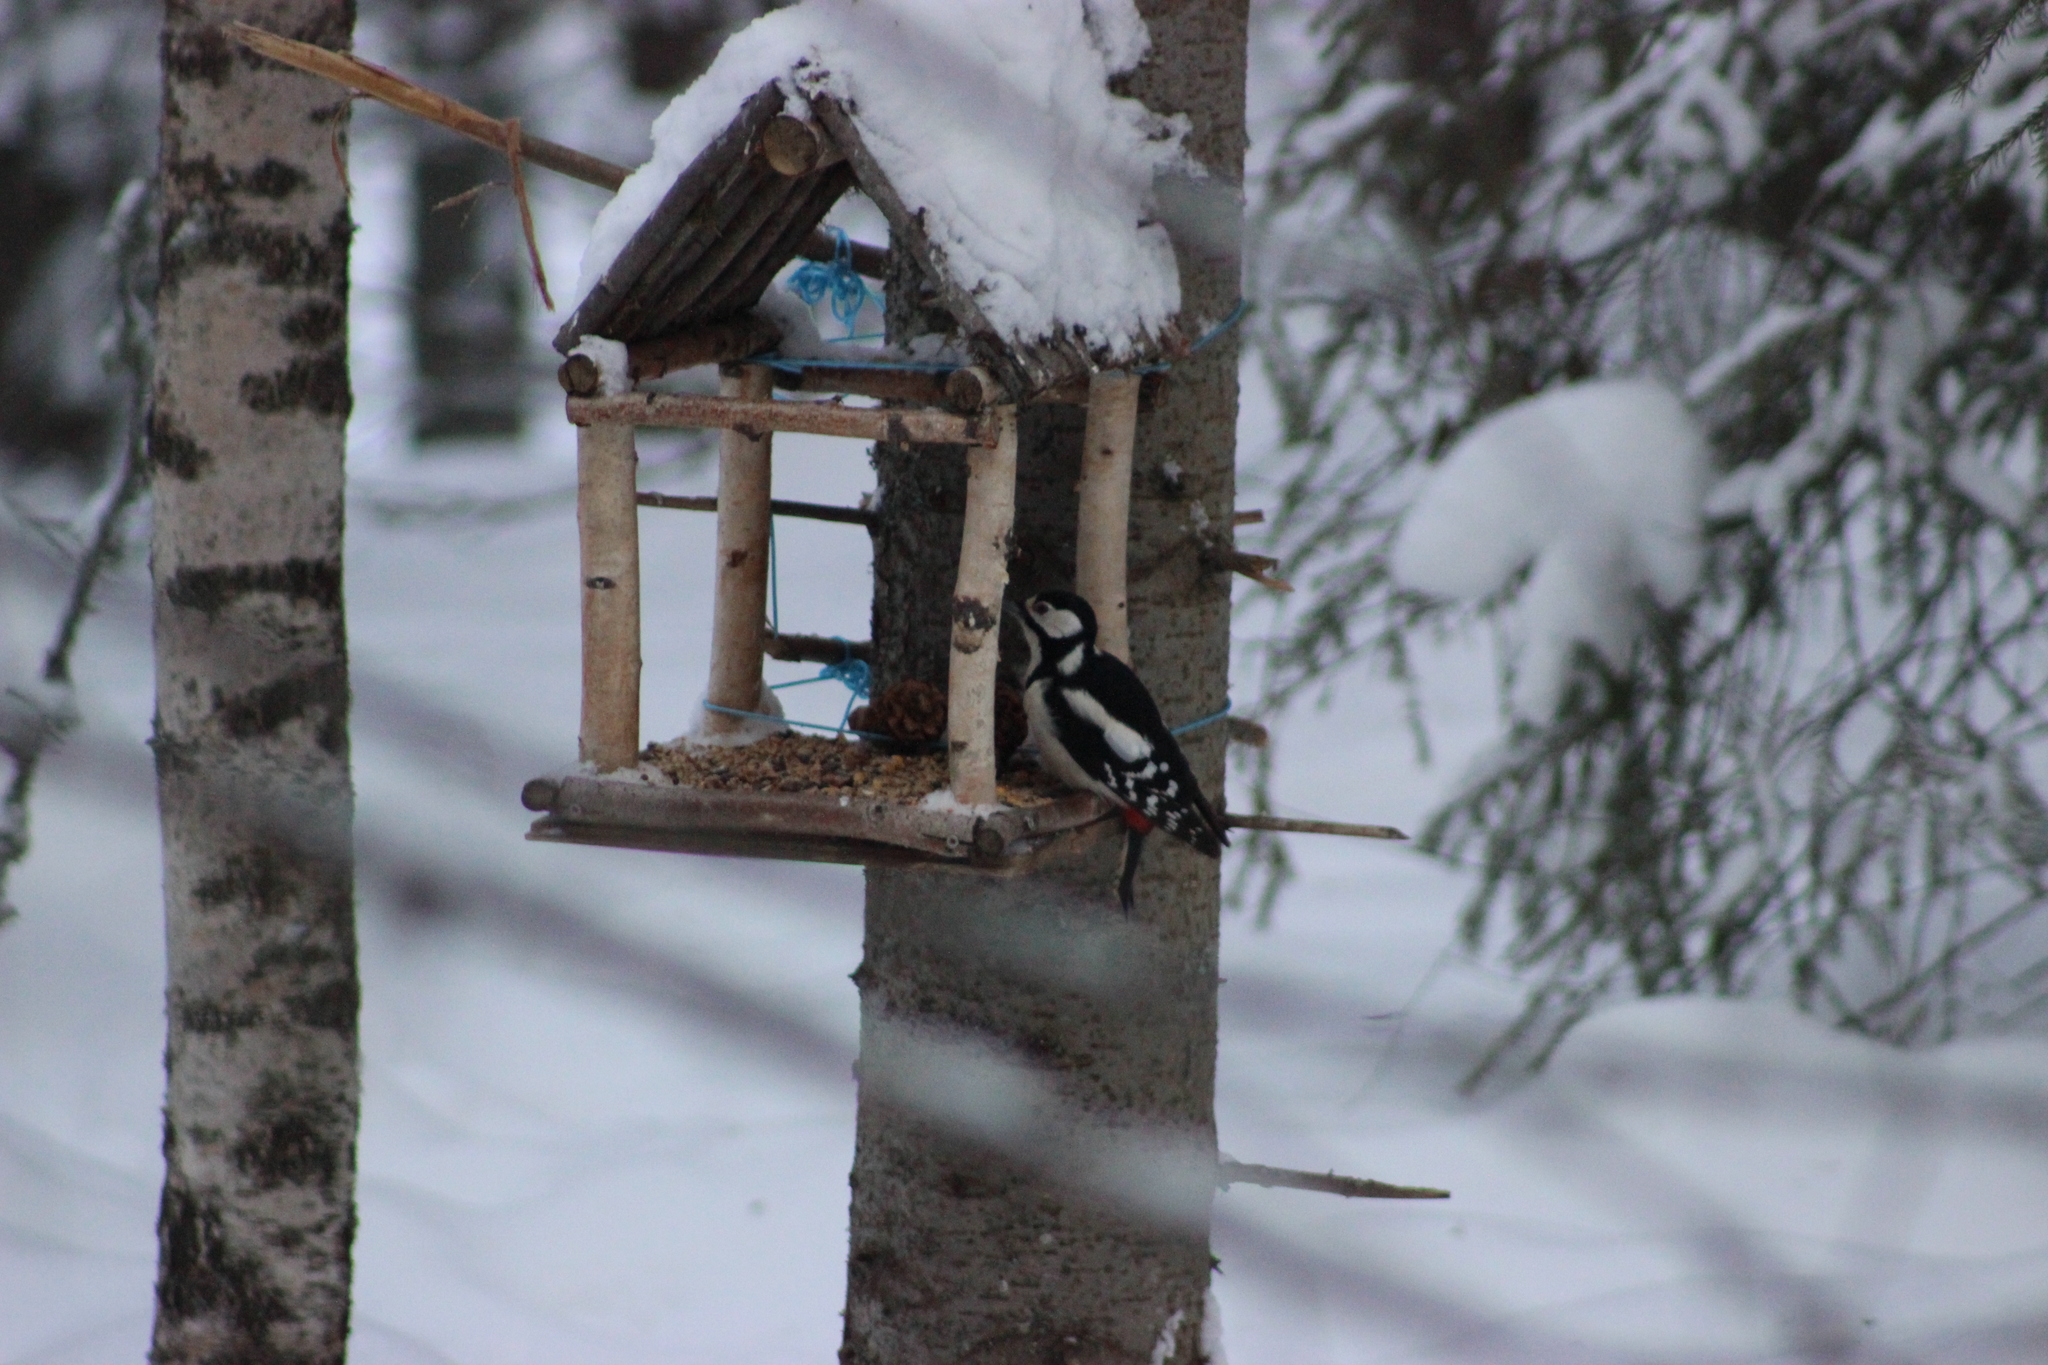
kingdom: Animalia
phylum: Chordata
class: Aves
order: Piciformes
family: Picidae
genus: Dendrocopos
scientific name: Dendrocopos major
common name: Great spotted woodpecker
